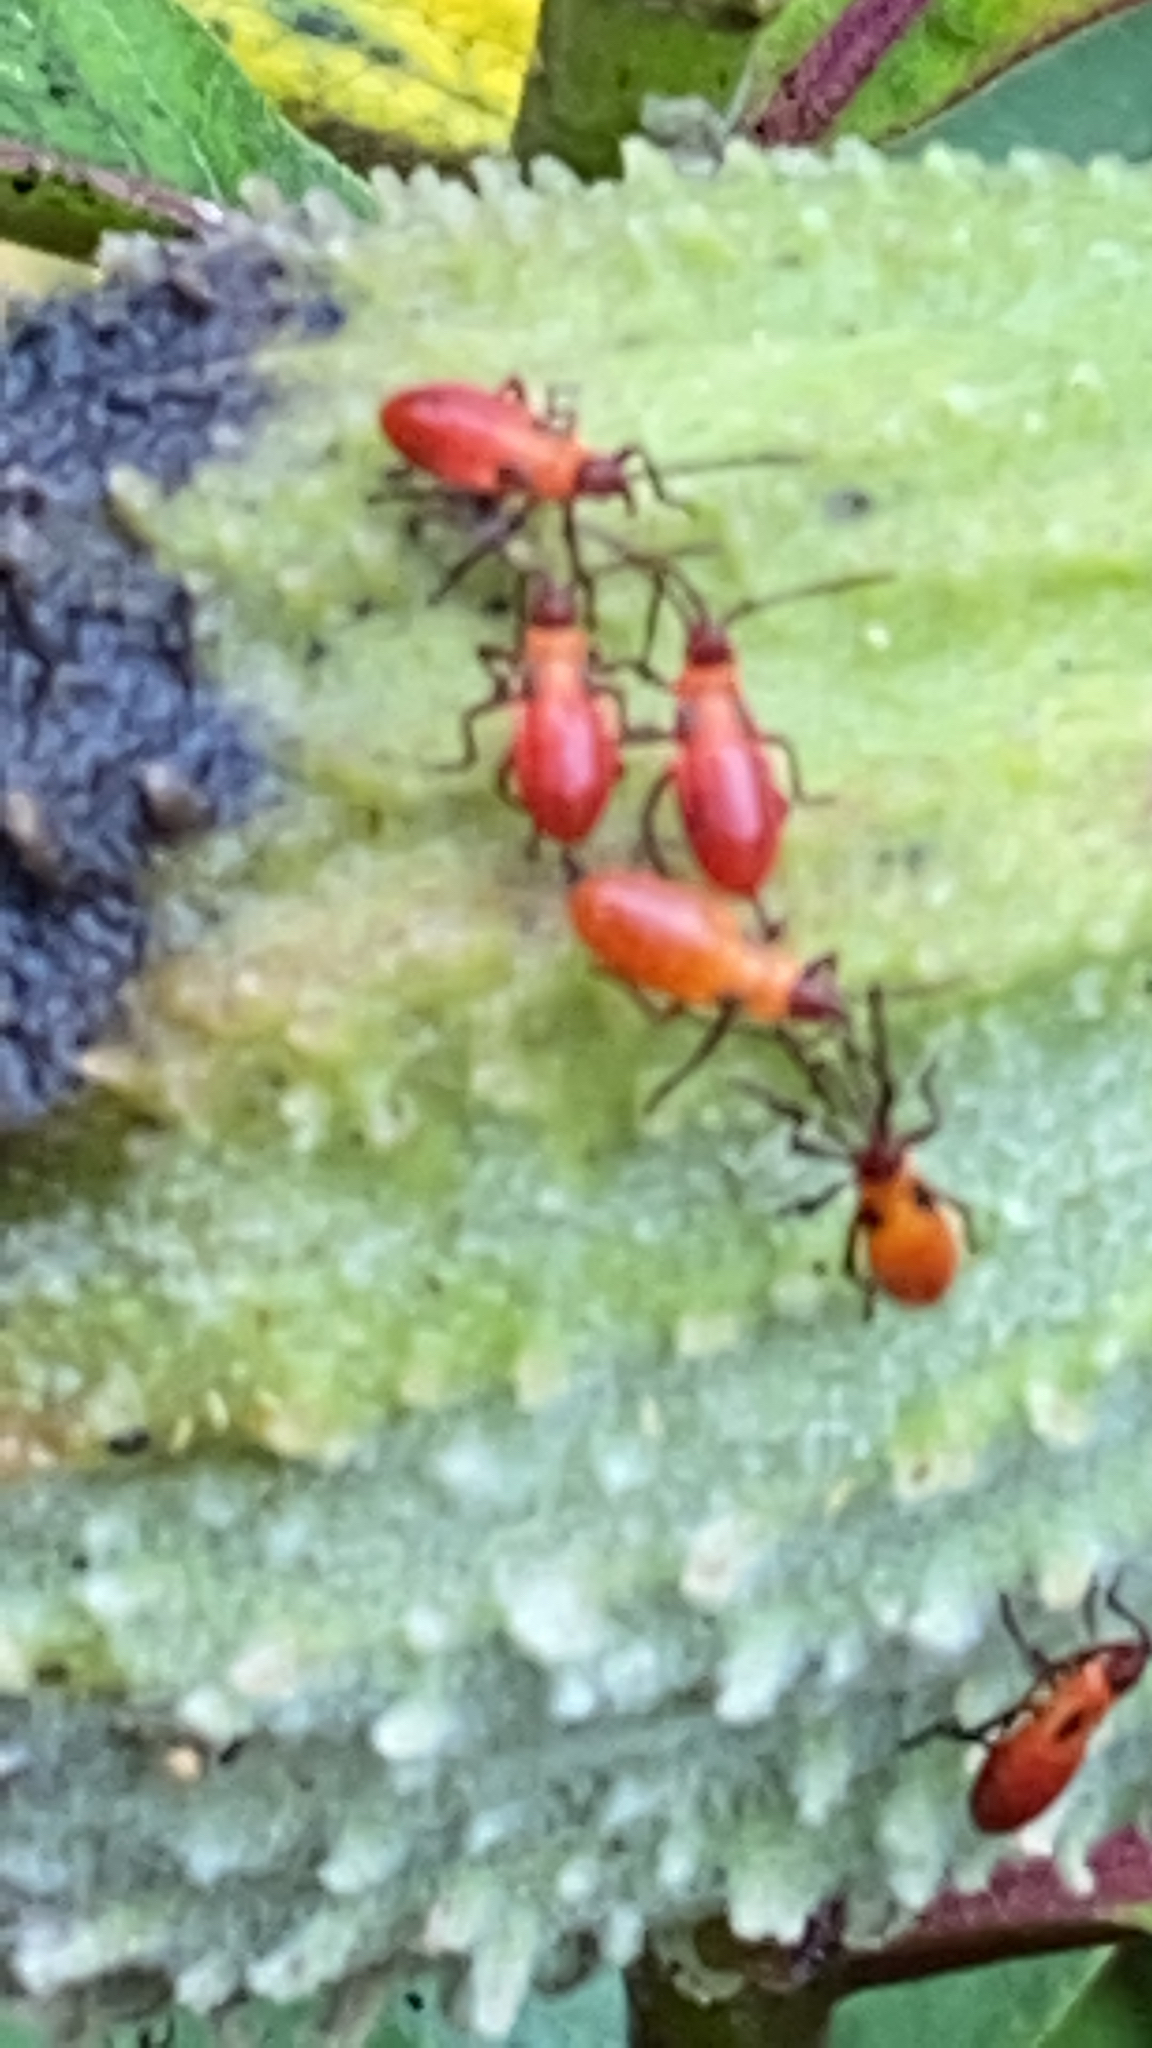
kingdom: Animalia
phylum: Arthropoda
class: Insecta
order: Hemiptera
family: Lygaeidae
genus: Oncopeltus
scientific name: Oncopeltus fasciatus
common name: Large milkweed bug
